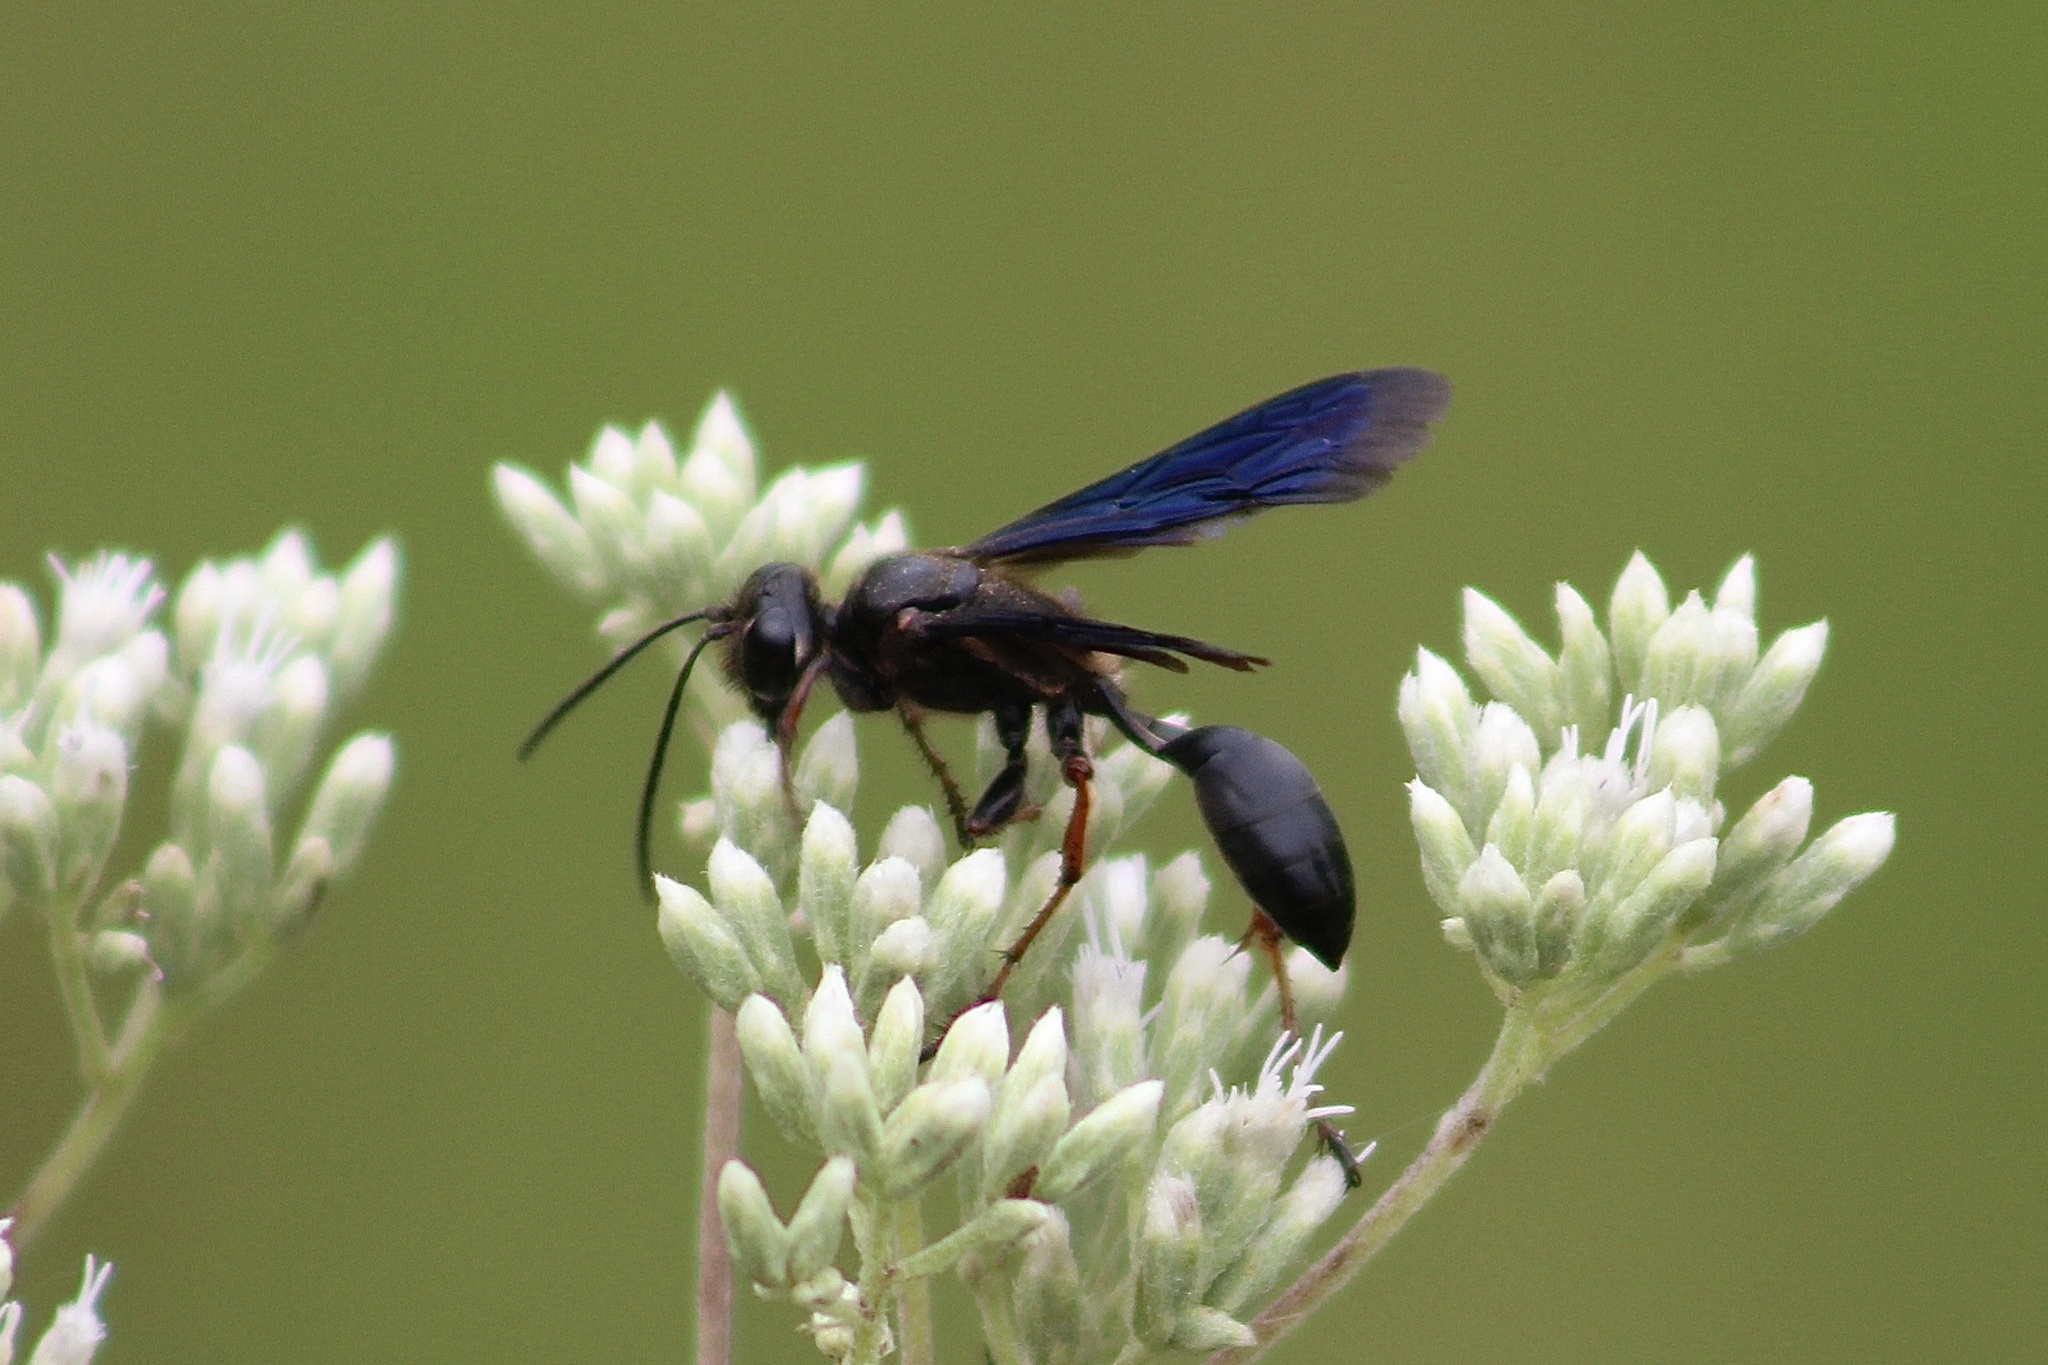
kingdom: Animalia
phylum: Arthropoda
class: Insecta
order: Hymenoptera
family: Sphecidae
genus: Isodontia
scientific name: Isodontia auripes
